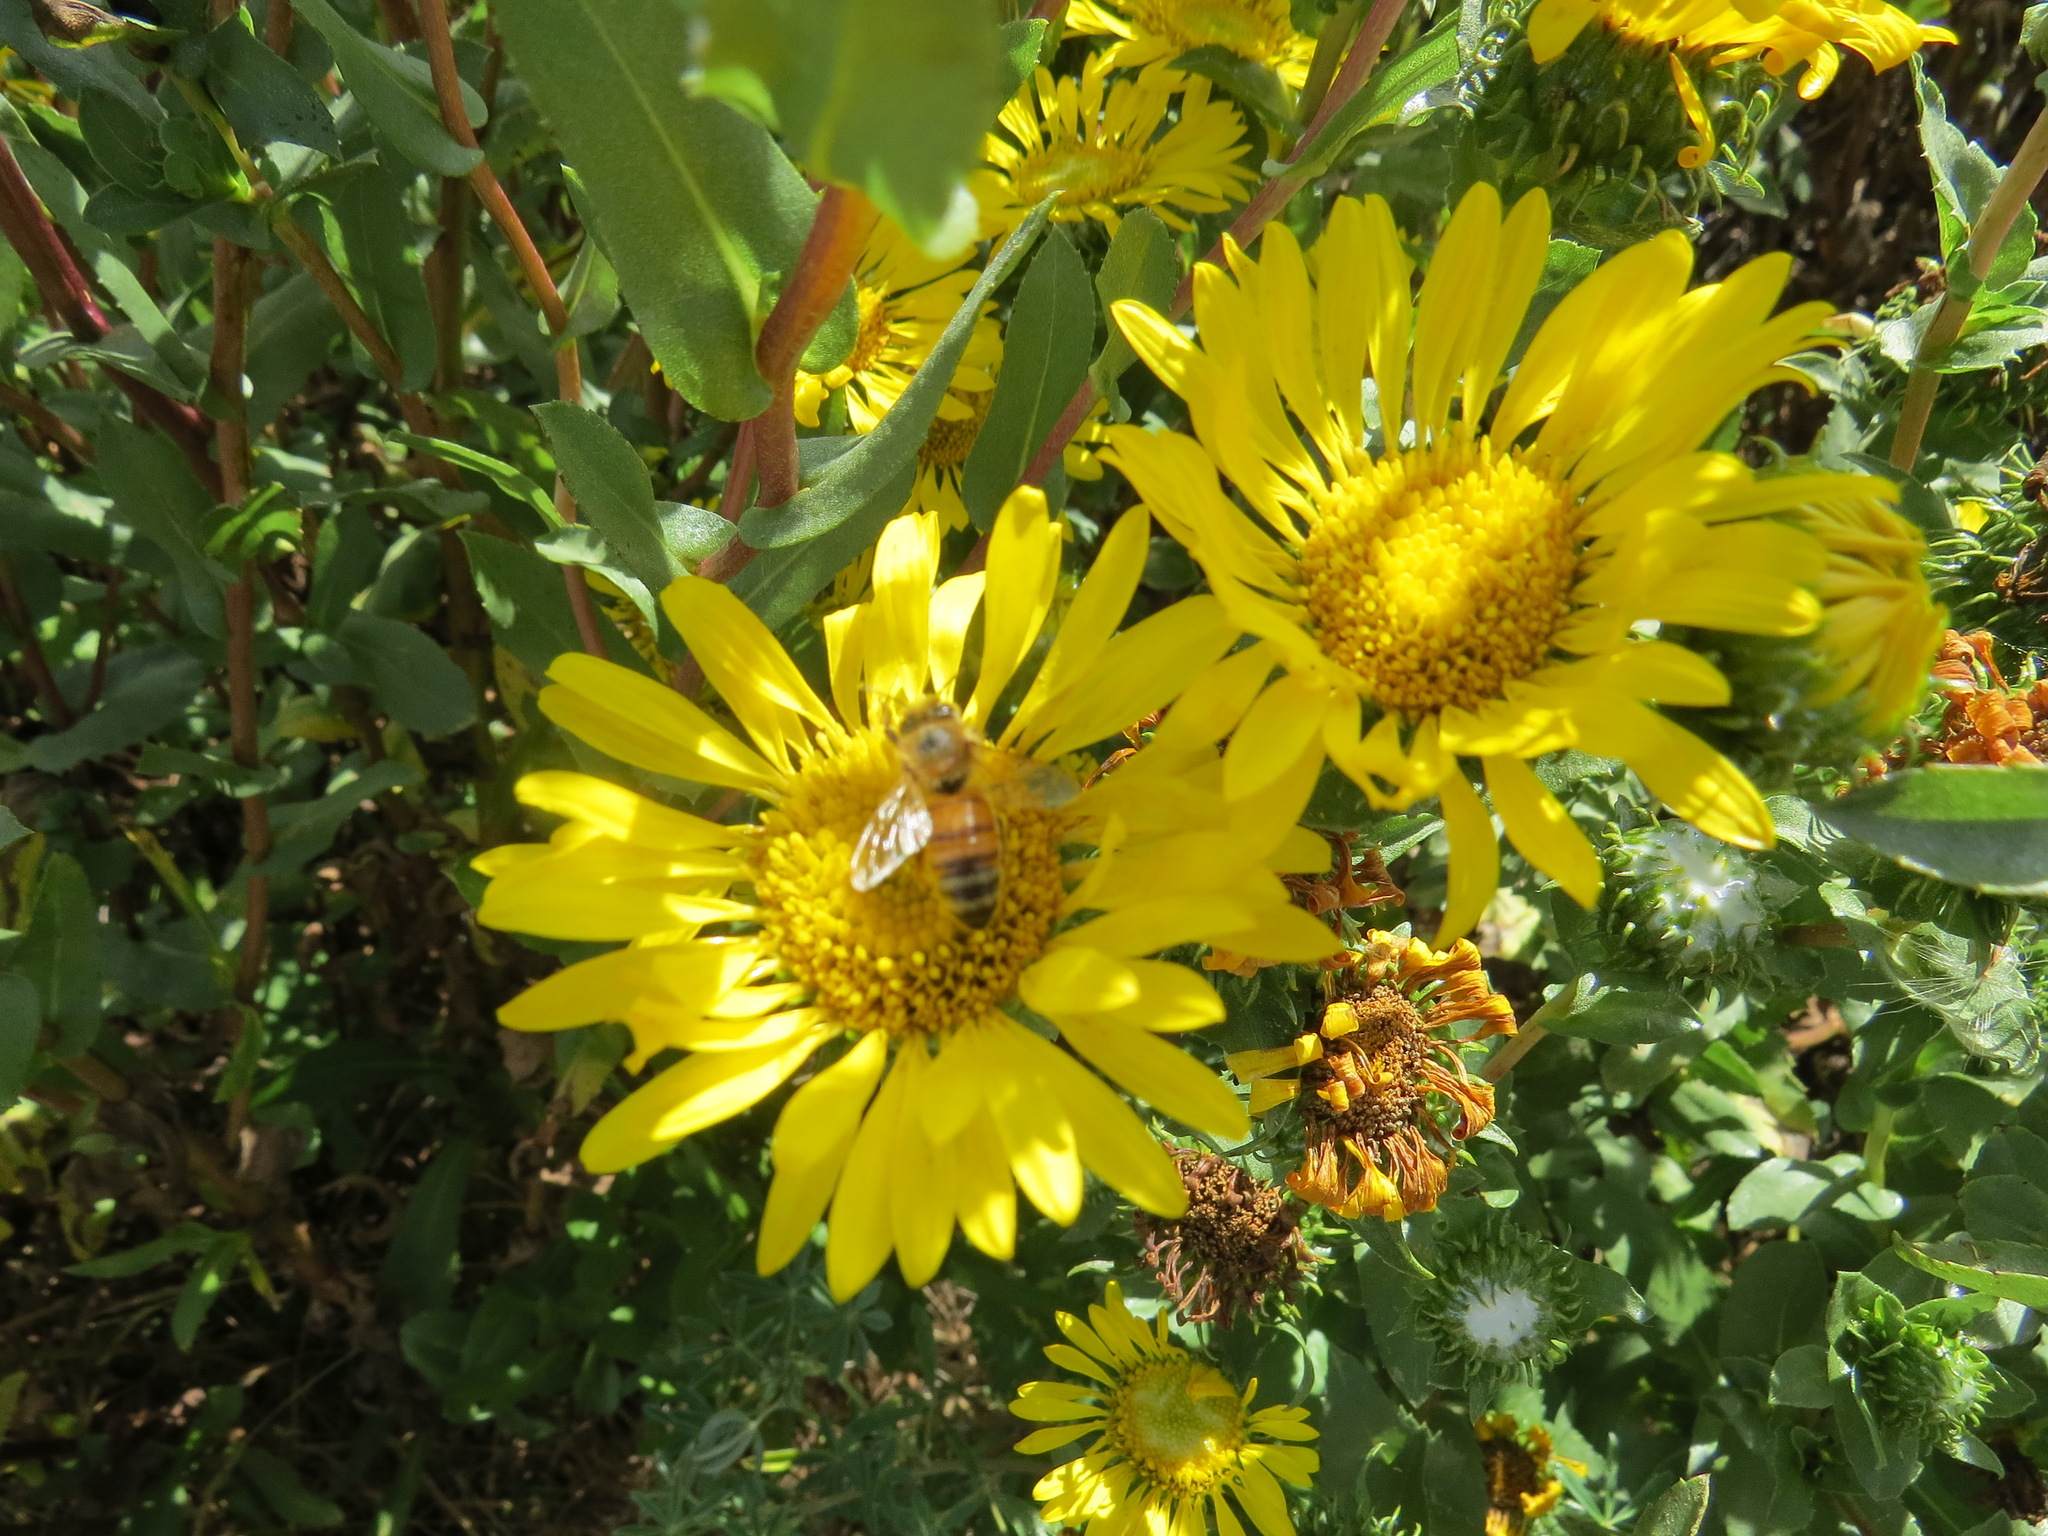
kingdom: Animalia
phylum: Arthropoda
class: Insecta
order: Hymenoptera
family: Apidae
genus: Apis
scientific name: Apis mellifera
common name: Honey bee
